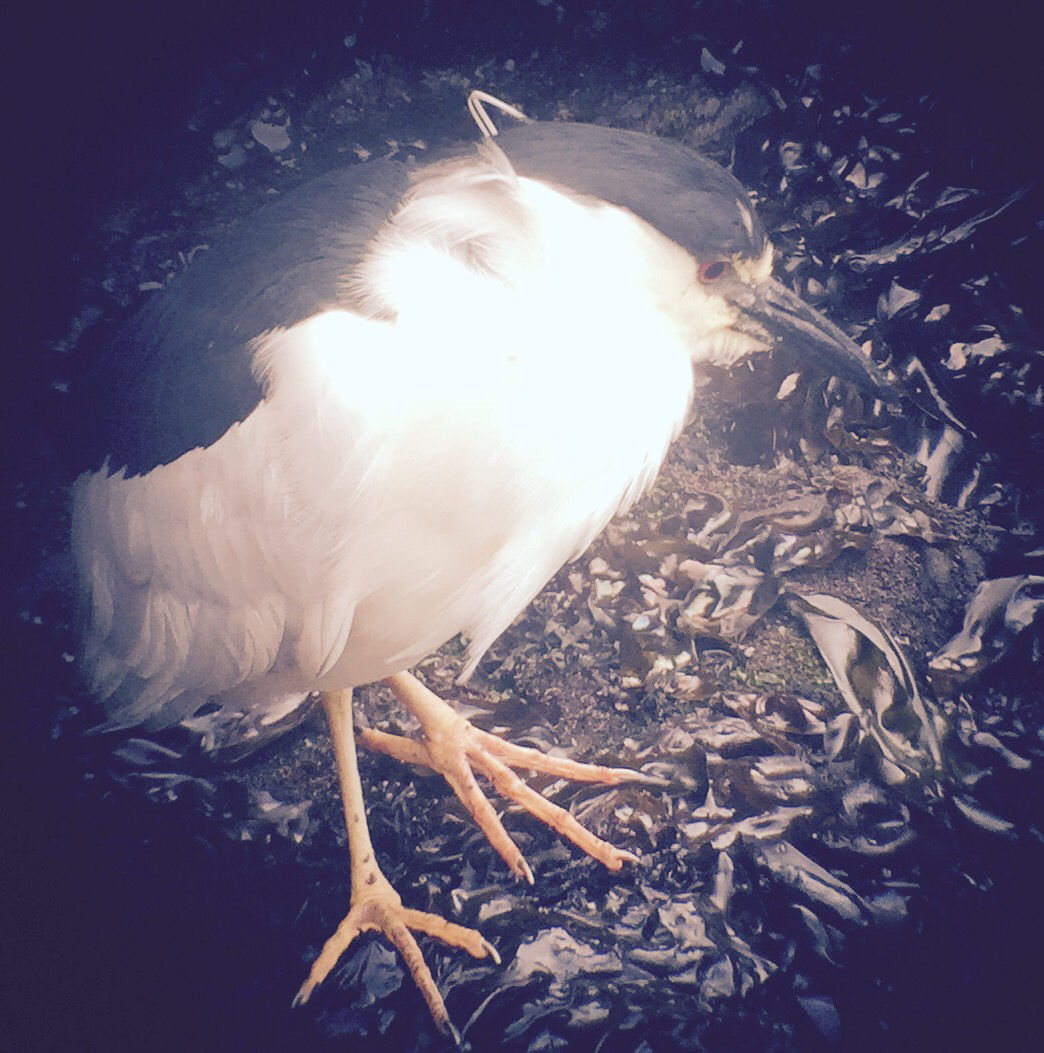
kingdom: Animalia
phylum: Chordata
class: Aves
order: Pelecaniformes
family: Ardeidae
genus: Nycticorax
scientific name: Nycticorax nycticorax
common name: Black-crowned night heron
